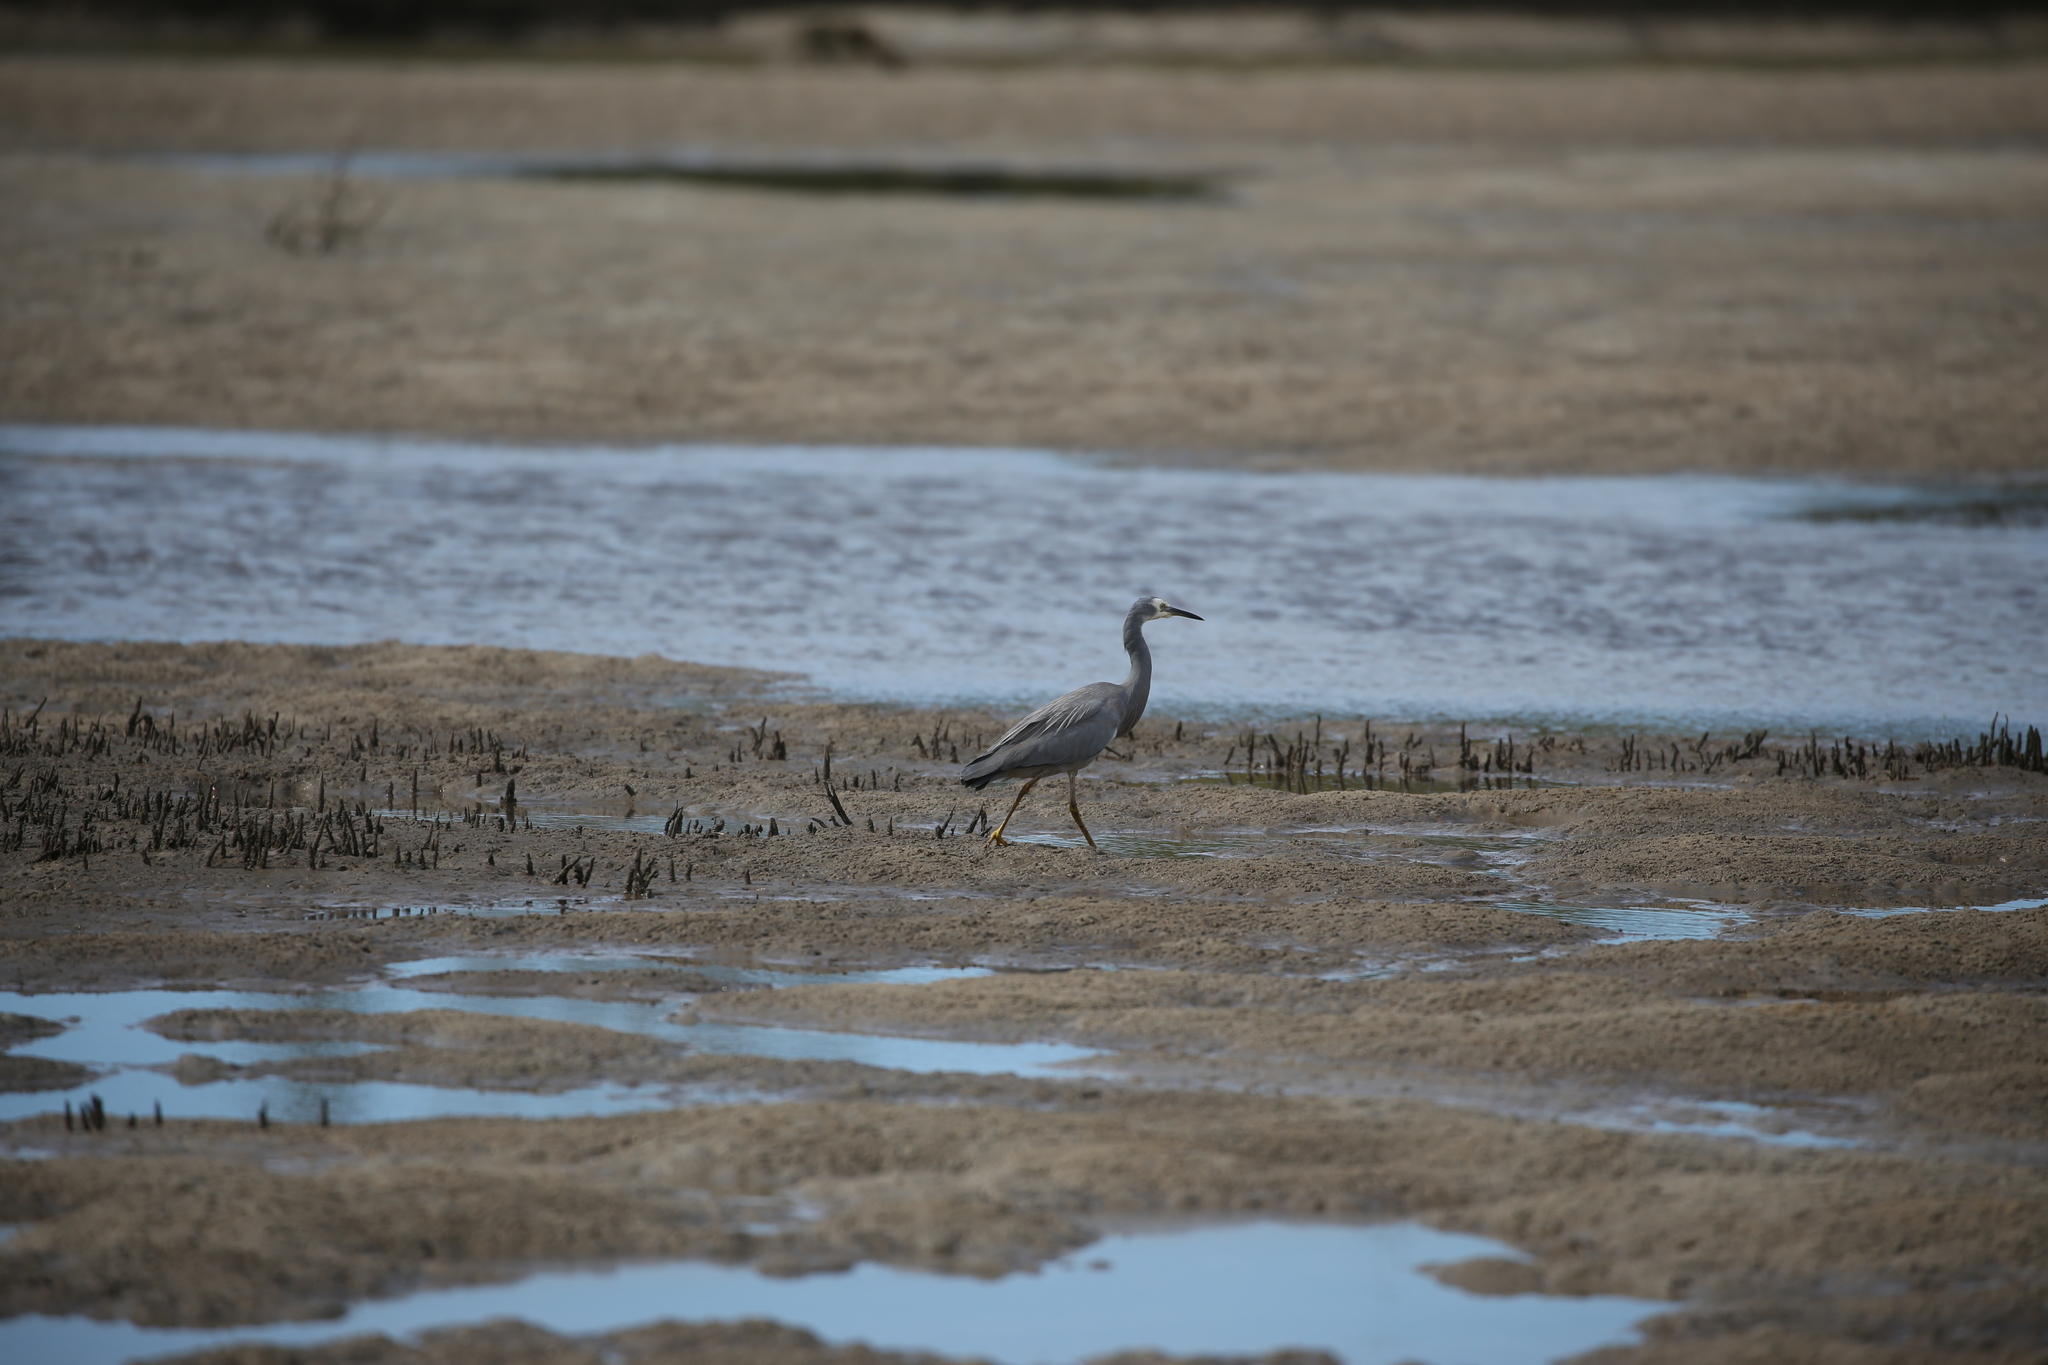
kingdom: Animalia
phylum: Chordata
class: Aves
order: Pelecaniformes
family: Ardeidae
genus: Egretta
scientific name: Egretta novaehollandiae
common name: White-faced heron
